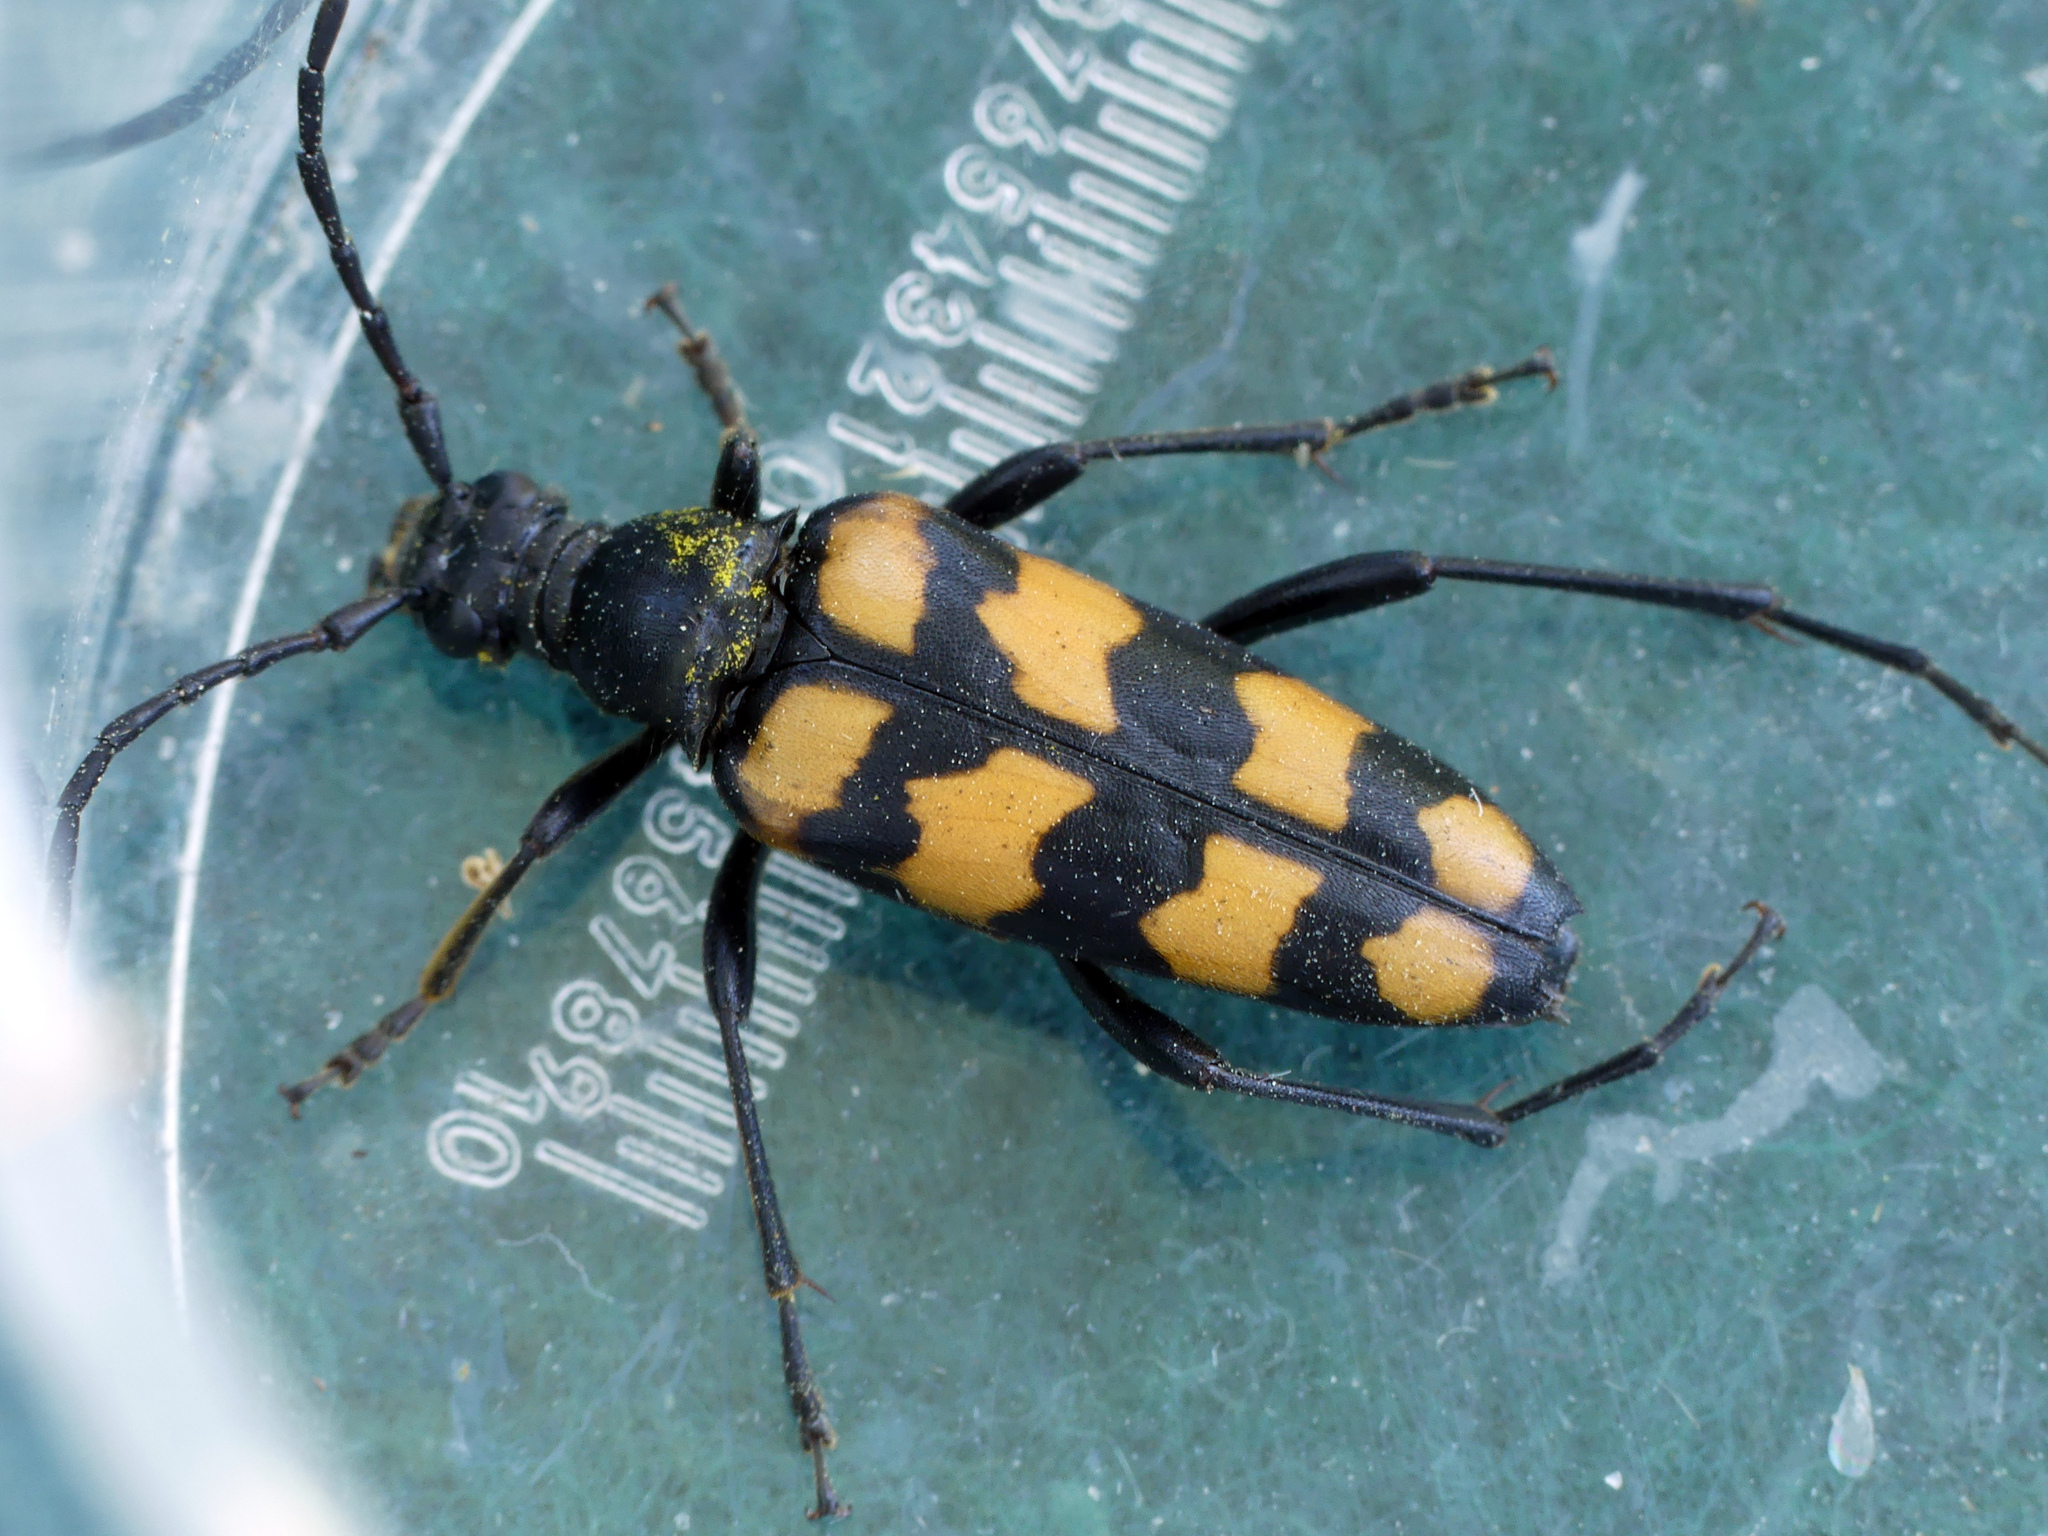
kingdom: Animalia
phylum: Arthropoda
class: Insecta
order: Coleoptera
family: Cerambycidae
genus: Leptura
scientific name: Leptura quadrifasciata
